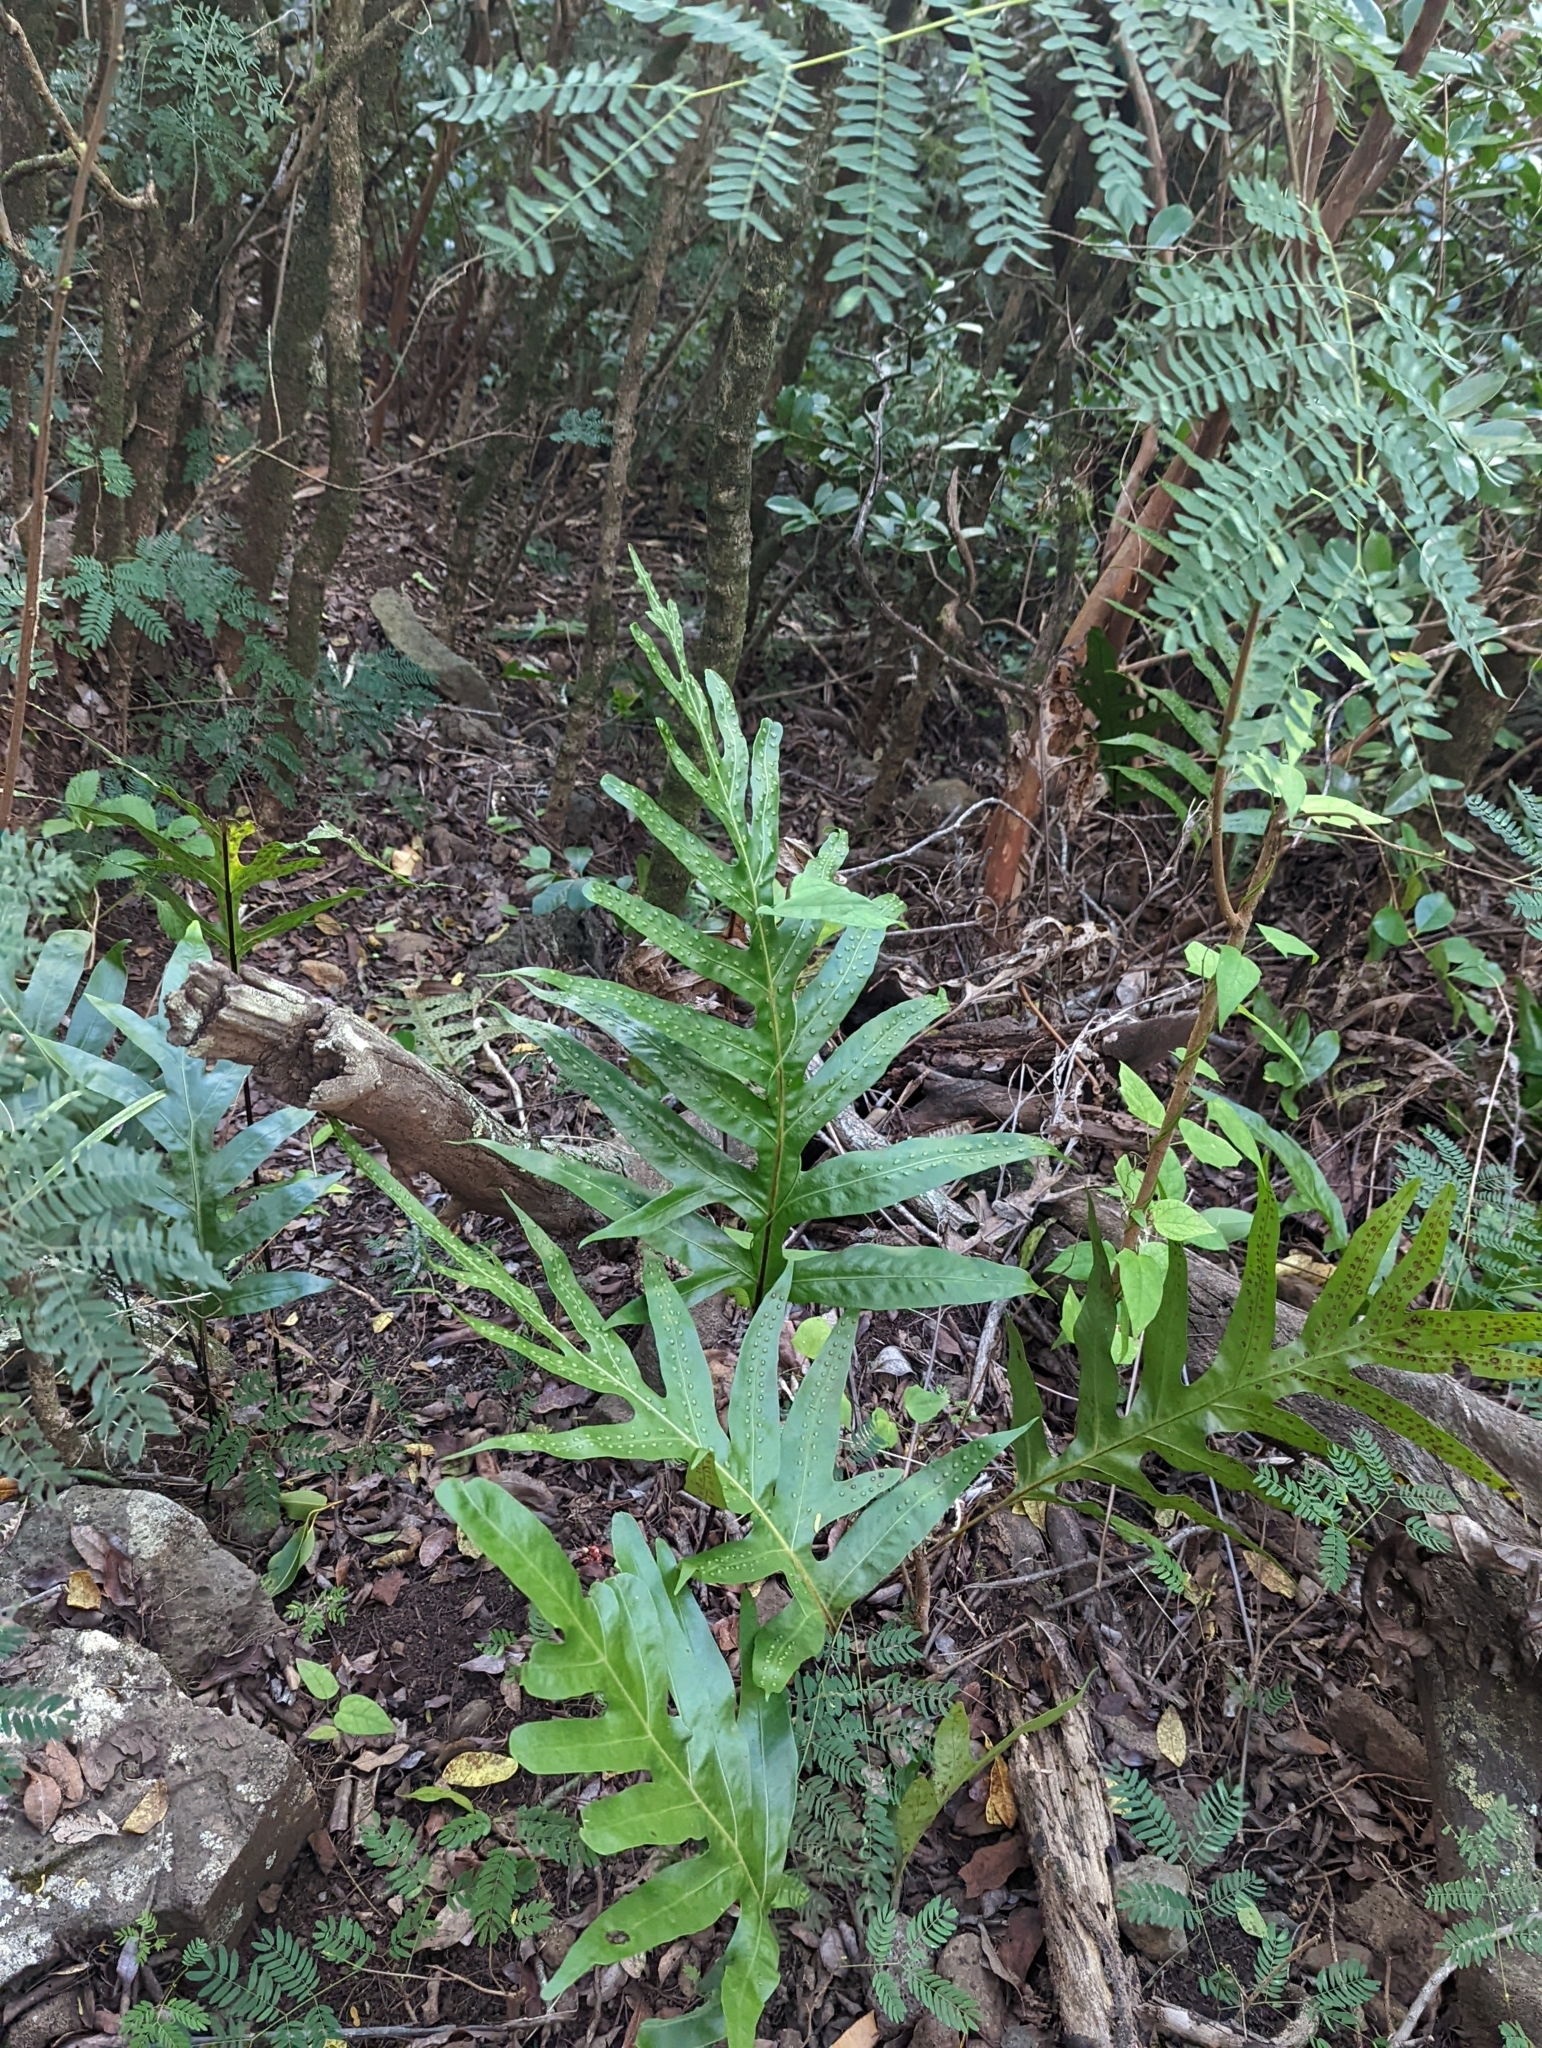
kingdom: Plantae
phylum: Tracheophyta
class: Polypodiopsida
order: Polypodiales
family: Polypodiaceae
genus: Microsorum
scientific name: Microsorum grossum
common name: Musk fern
